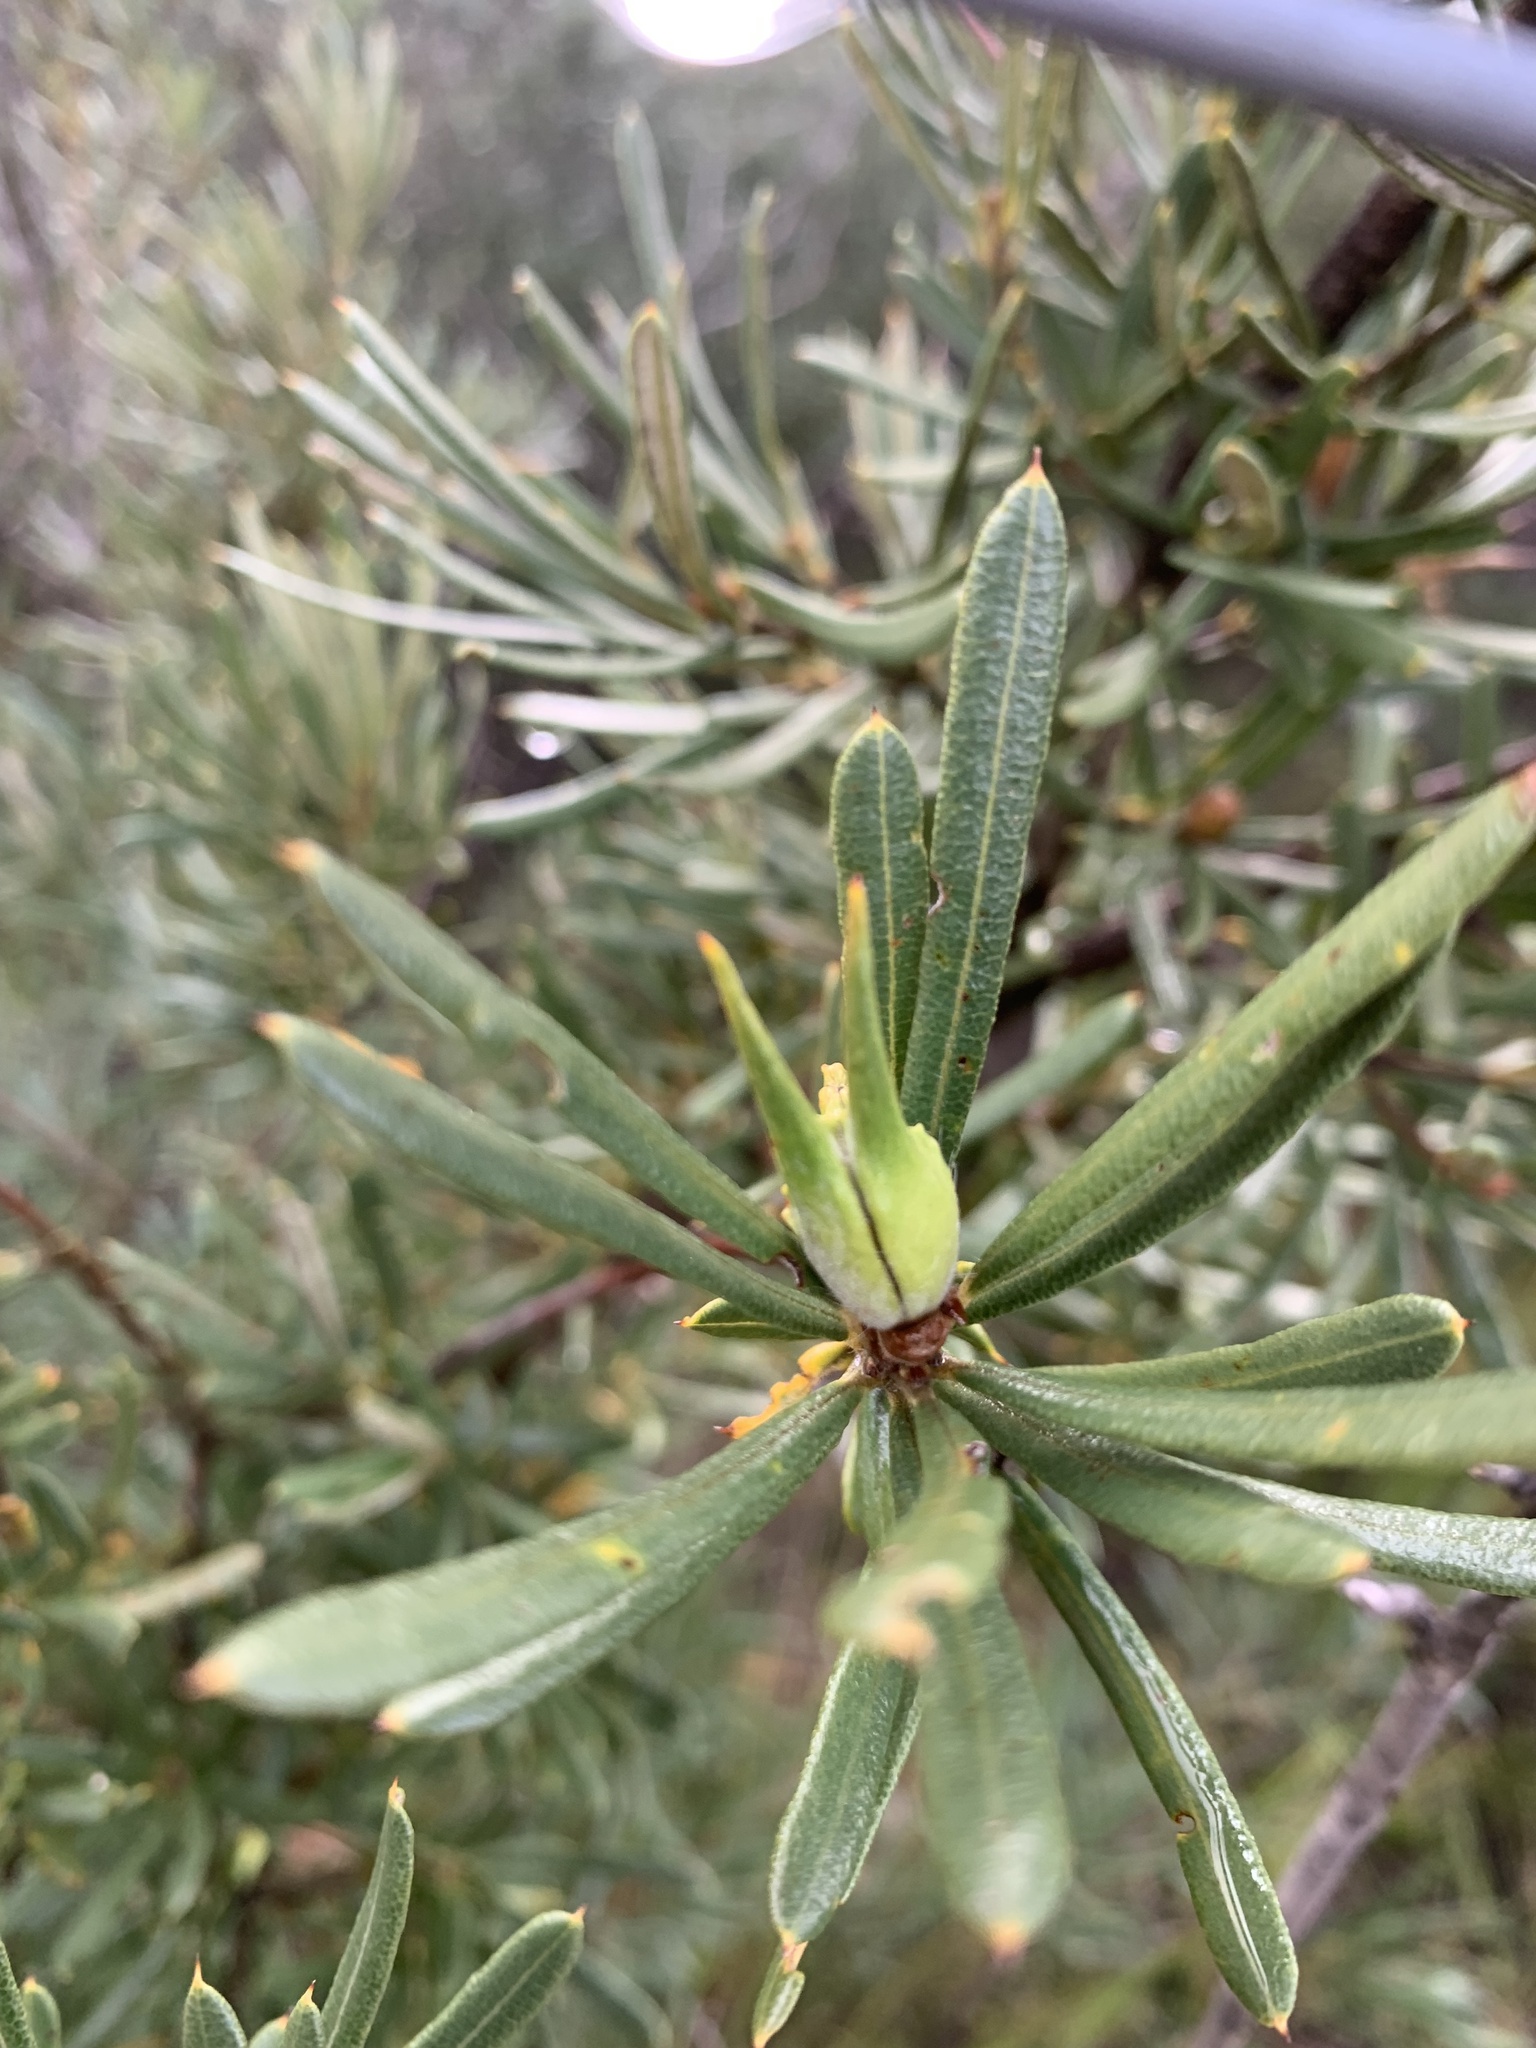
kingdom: Plantae
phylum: Tracheophyta
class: Magnoliopsida
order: Proteales
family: Proteaceae
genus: Lambertia
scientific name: Lambertia formosa
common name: Mountain-devil
